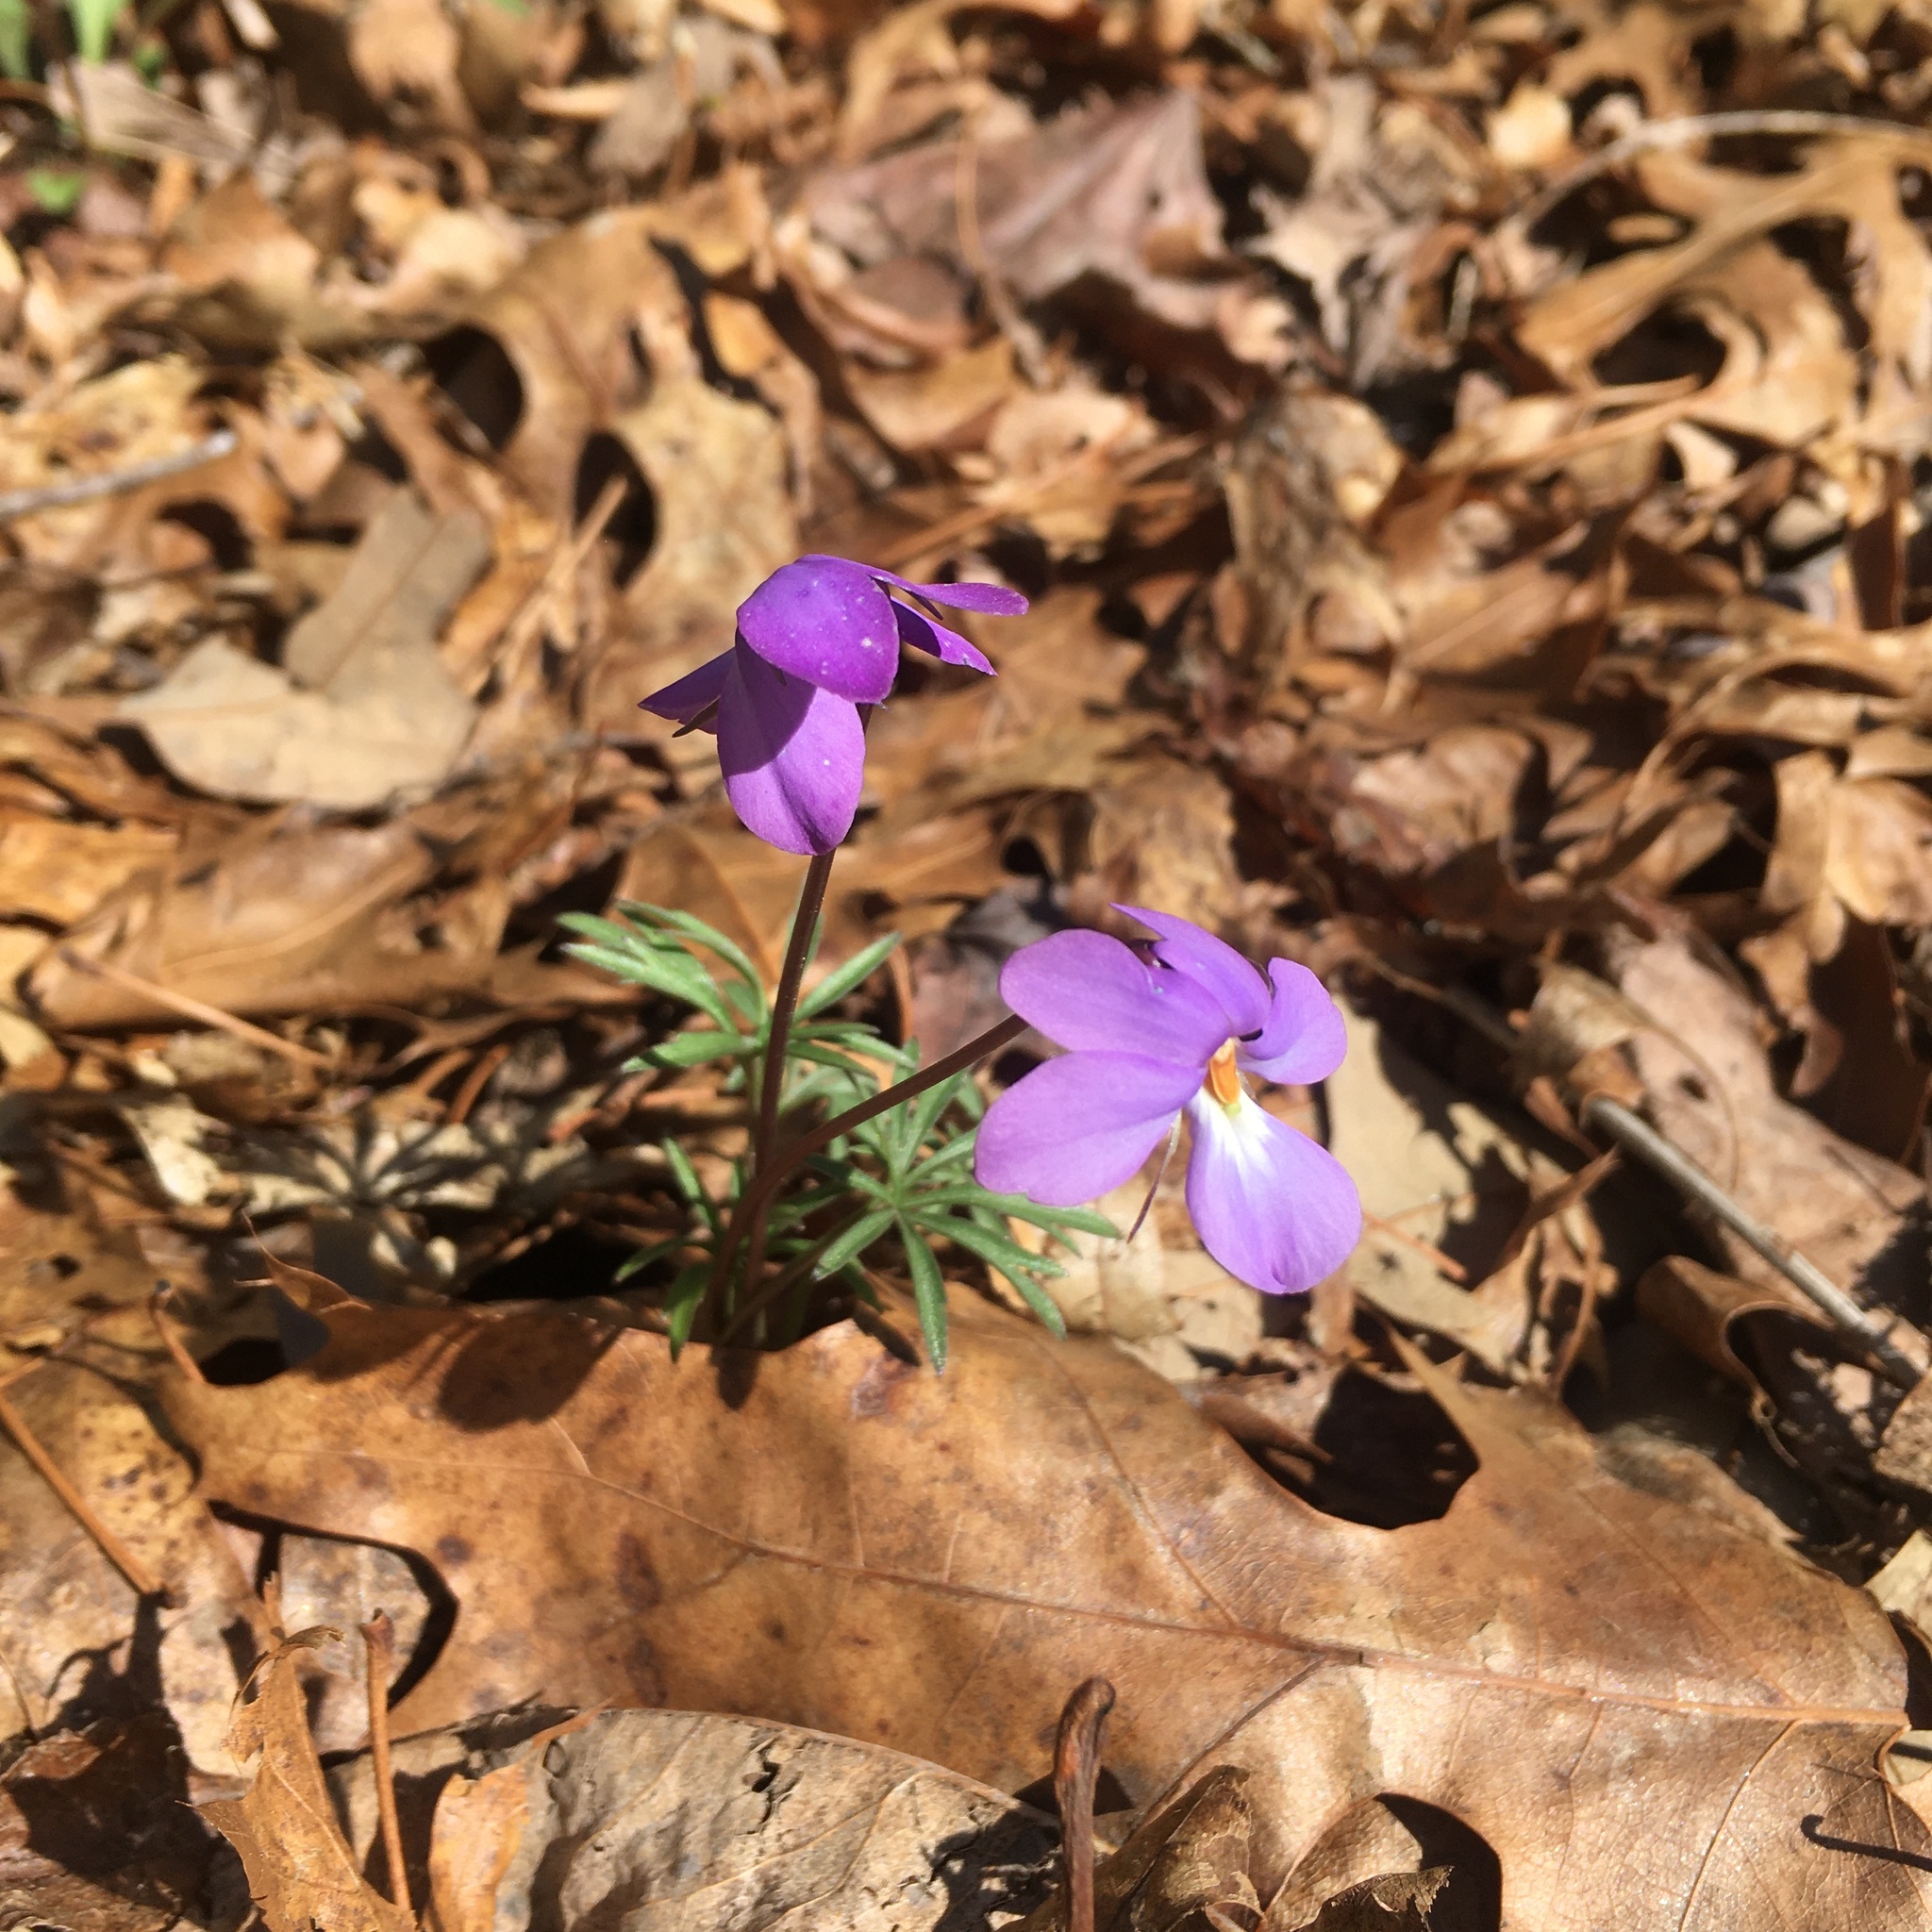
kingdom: Plantae
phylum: Tracheophyta
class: Magnoliopsida
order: Malpighiales
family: Violaceae
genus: Viola
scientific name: Viola pedata
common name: Pansy violet
